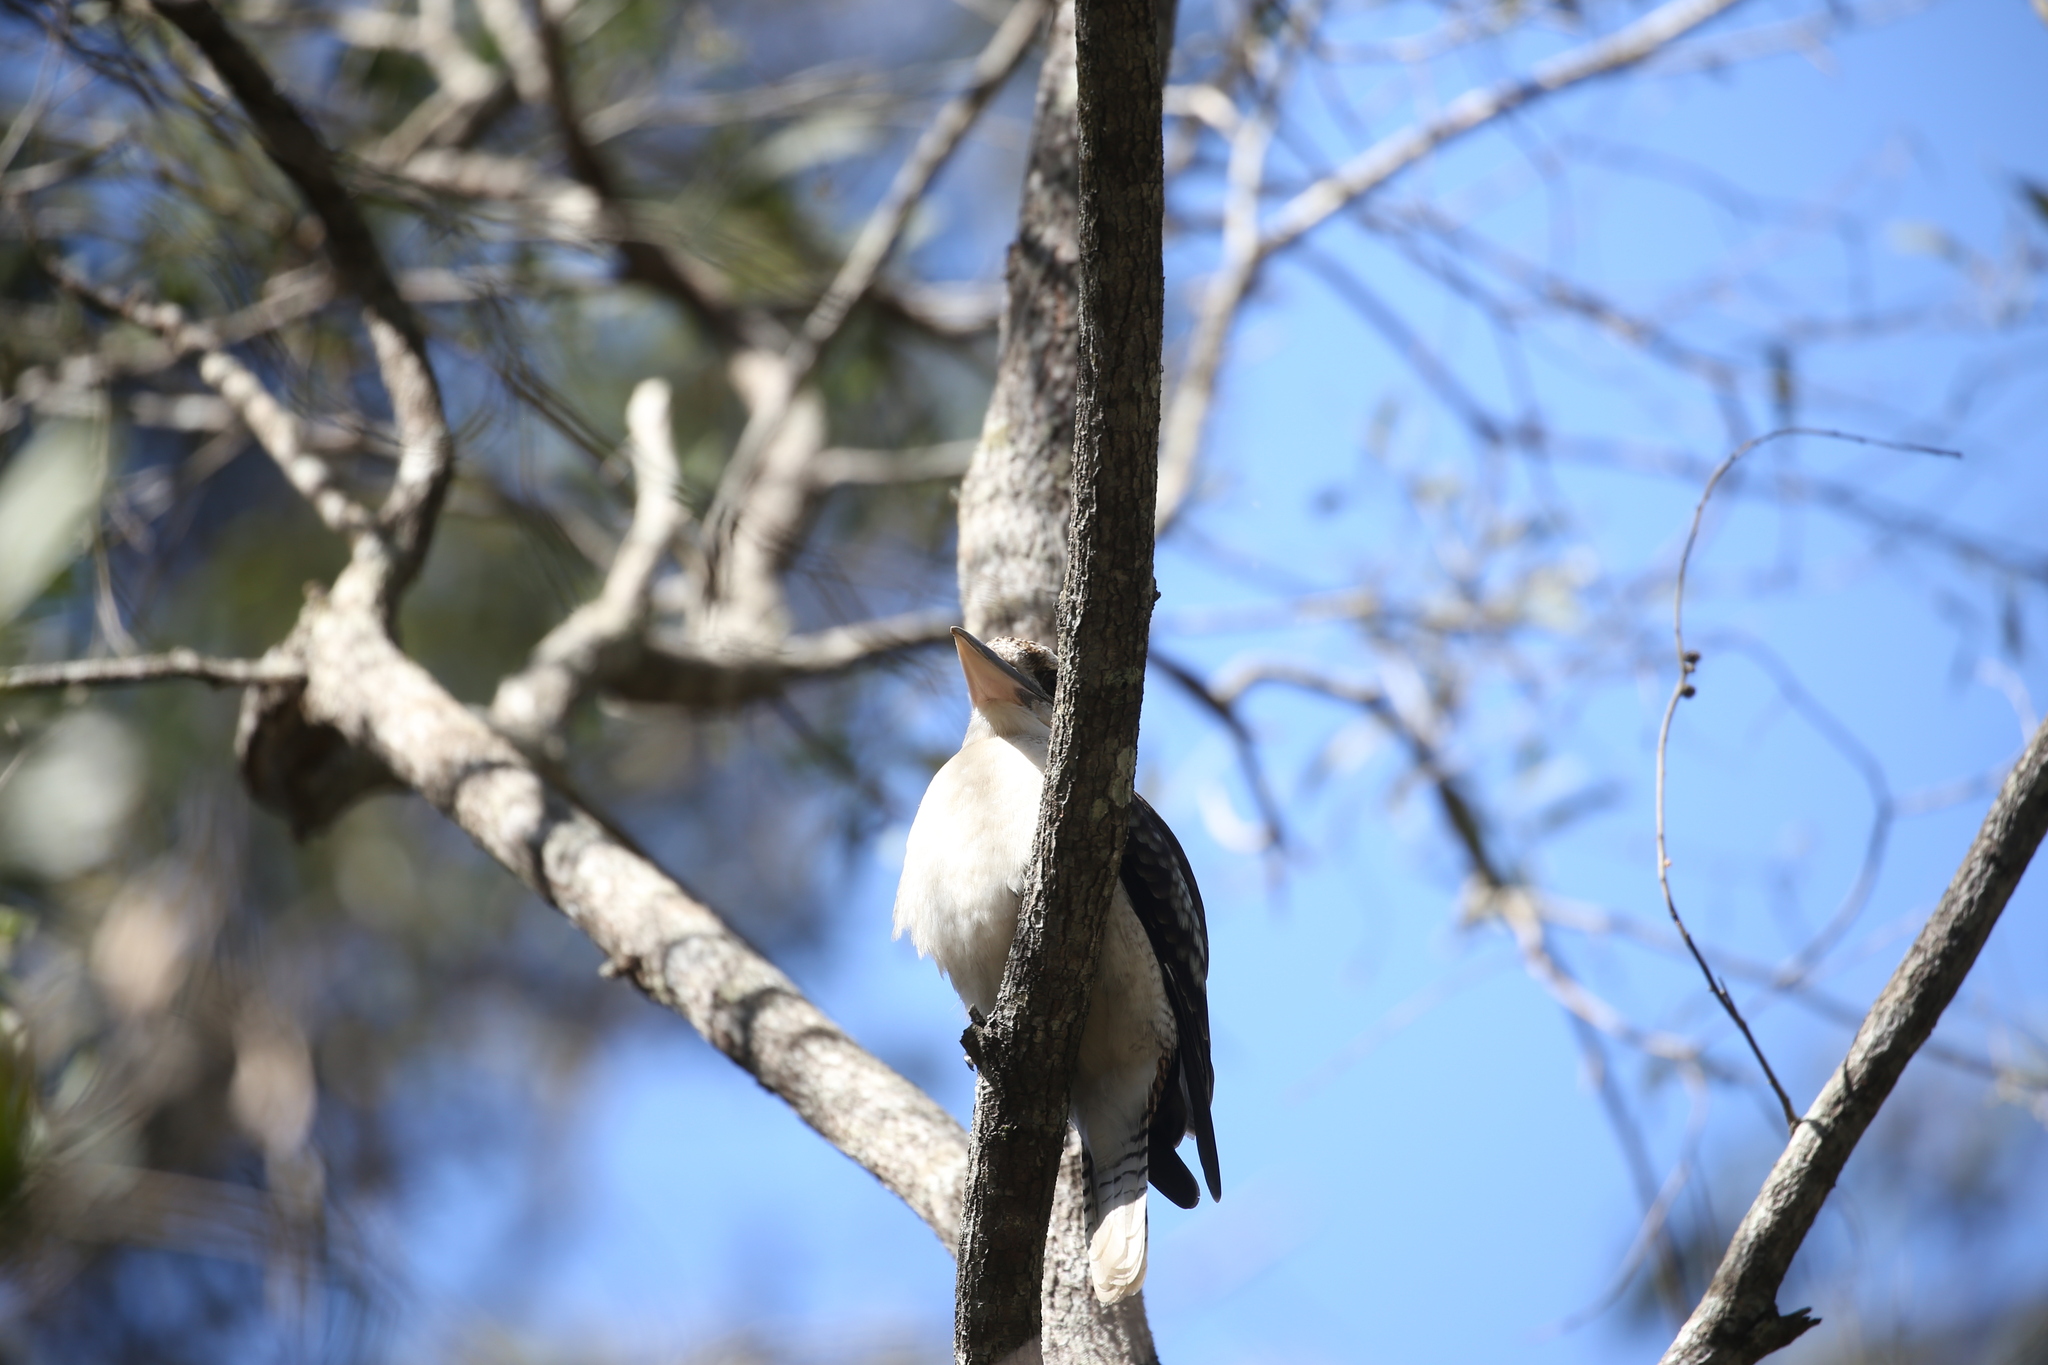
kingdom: Animalia
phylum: Chordata
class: Aves
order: Coraciiformes
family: Alcedinidae
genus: Dacelo
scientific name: Dacelo novaeguineae
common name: Laughing kookaburra
